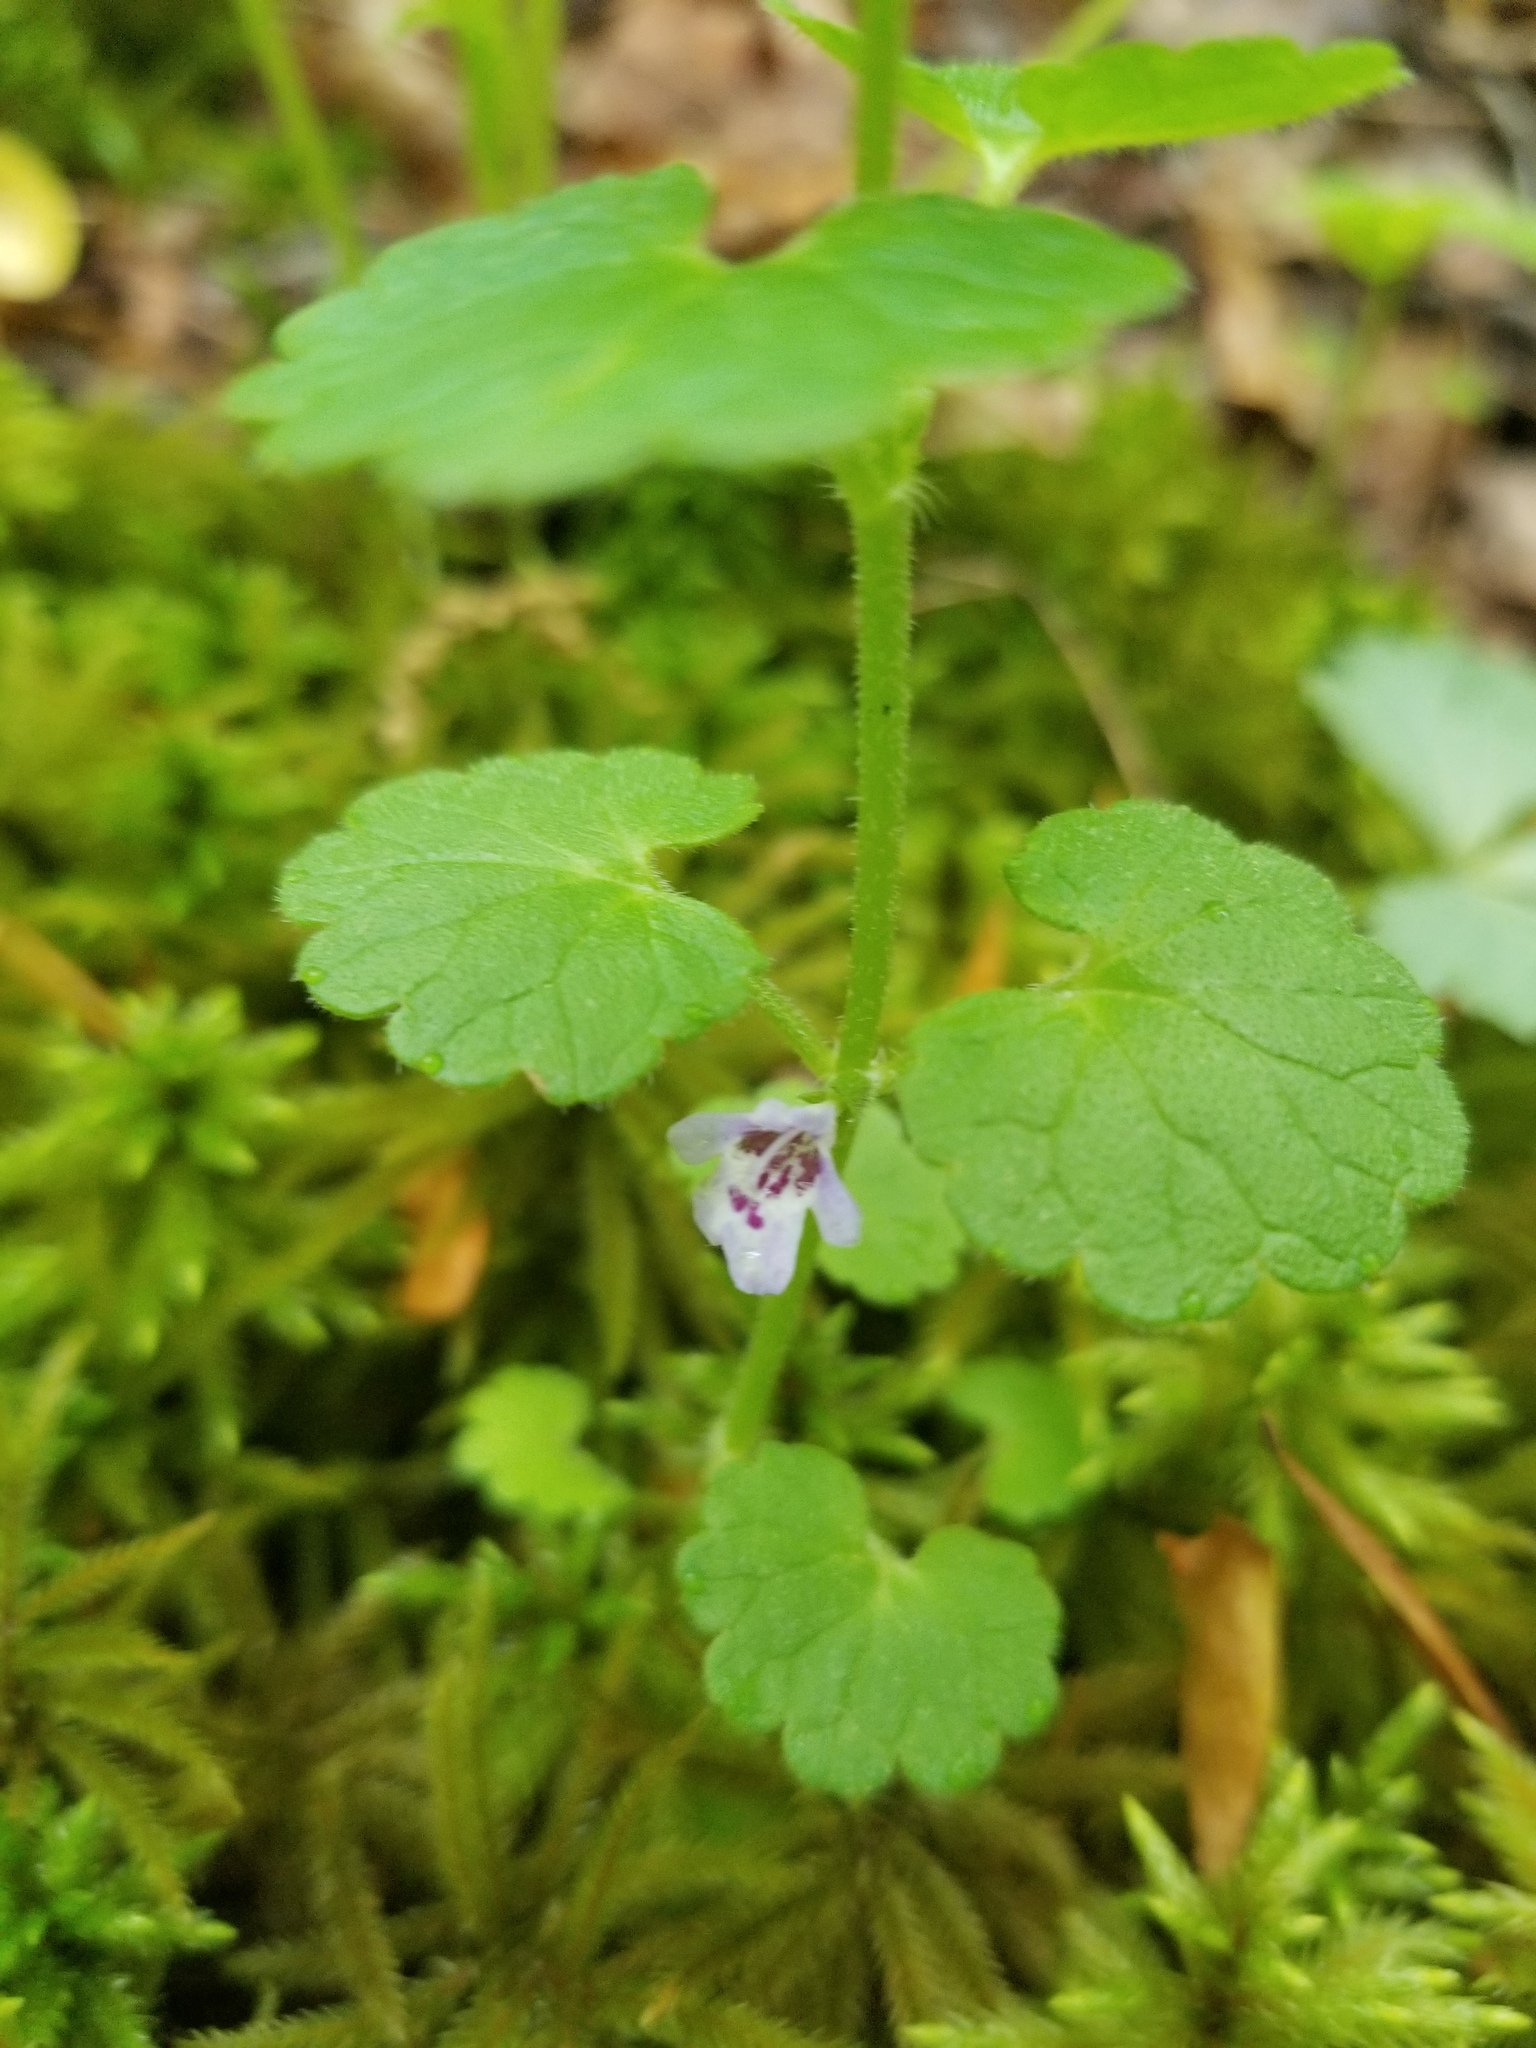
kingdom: Plantae
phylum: Tracheophyta
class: Magnoliopsida
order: Lamiales
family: Lamiaceae
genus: Glechoma
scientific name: Glechoma hederacea
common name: Ground ivy
